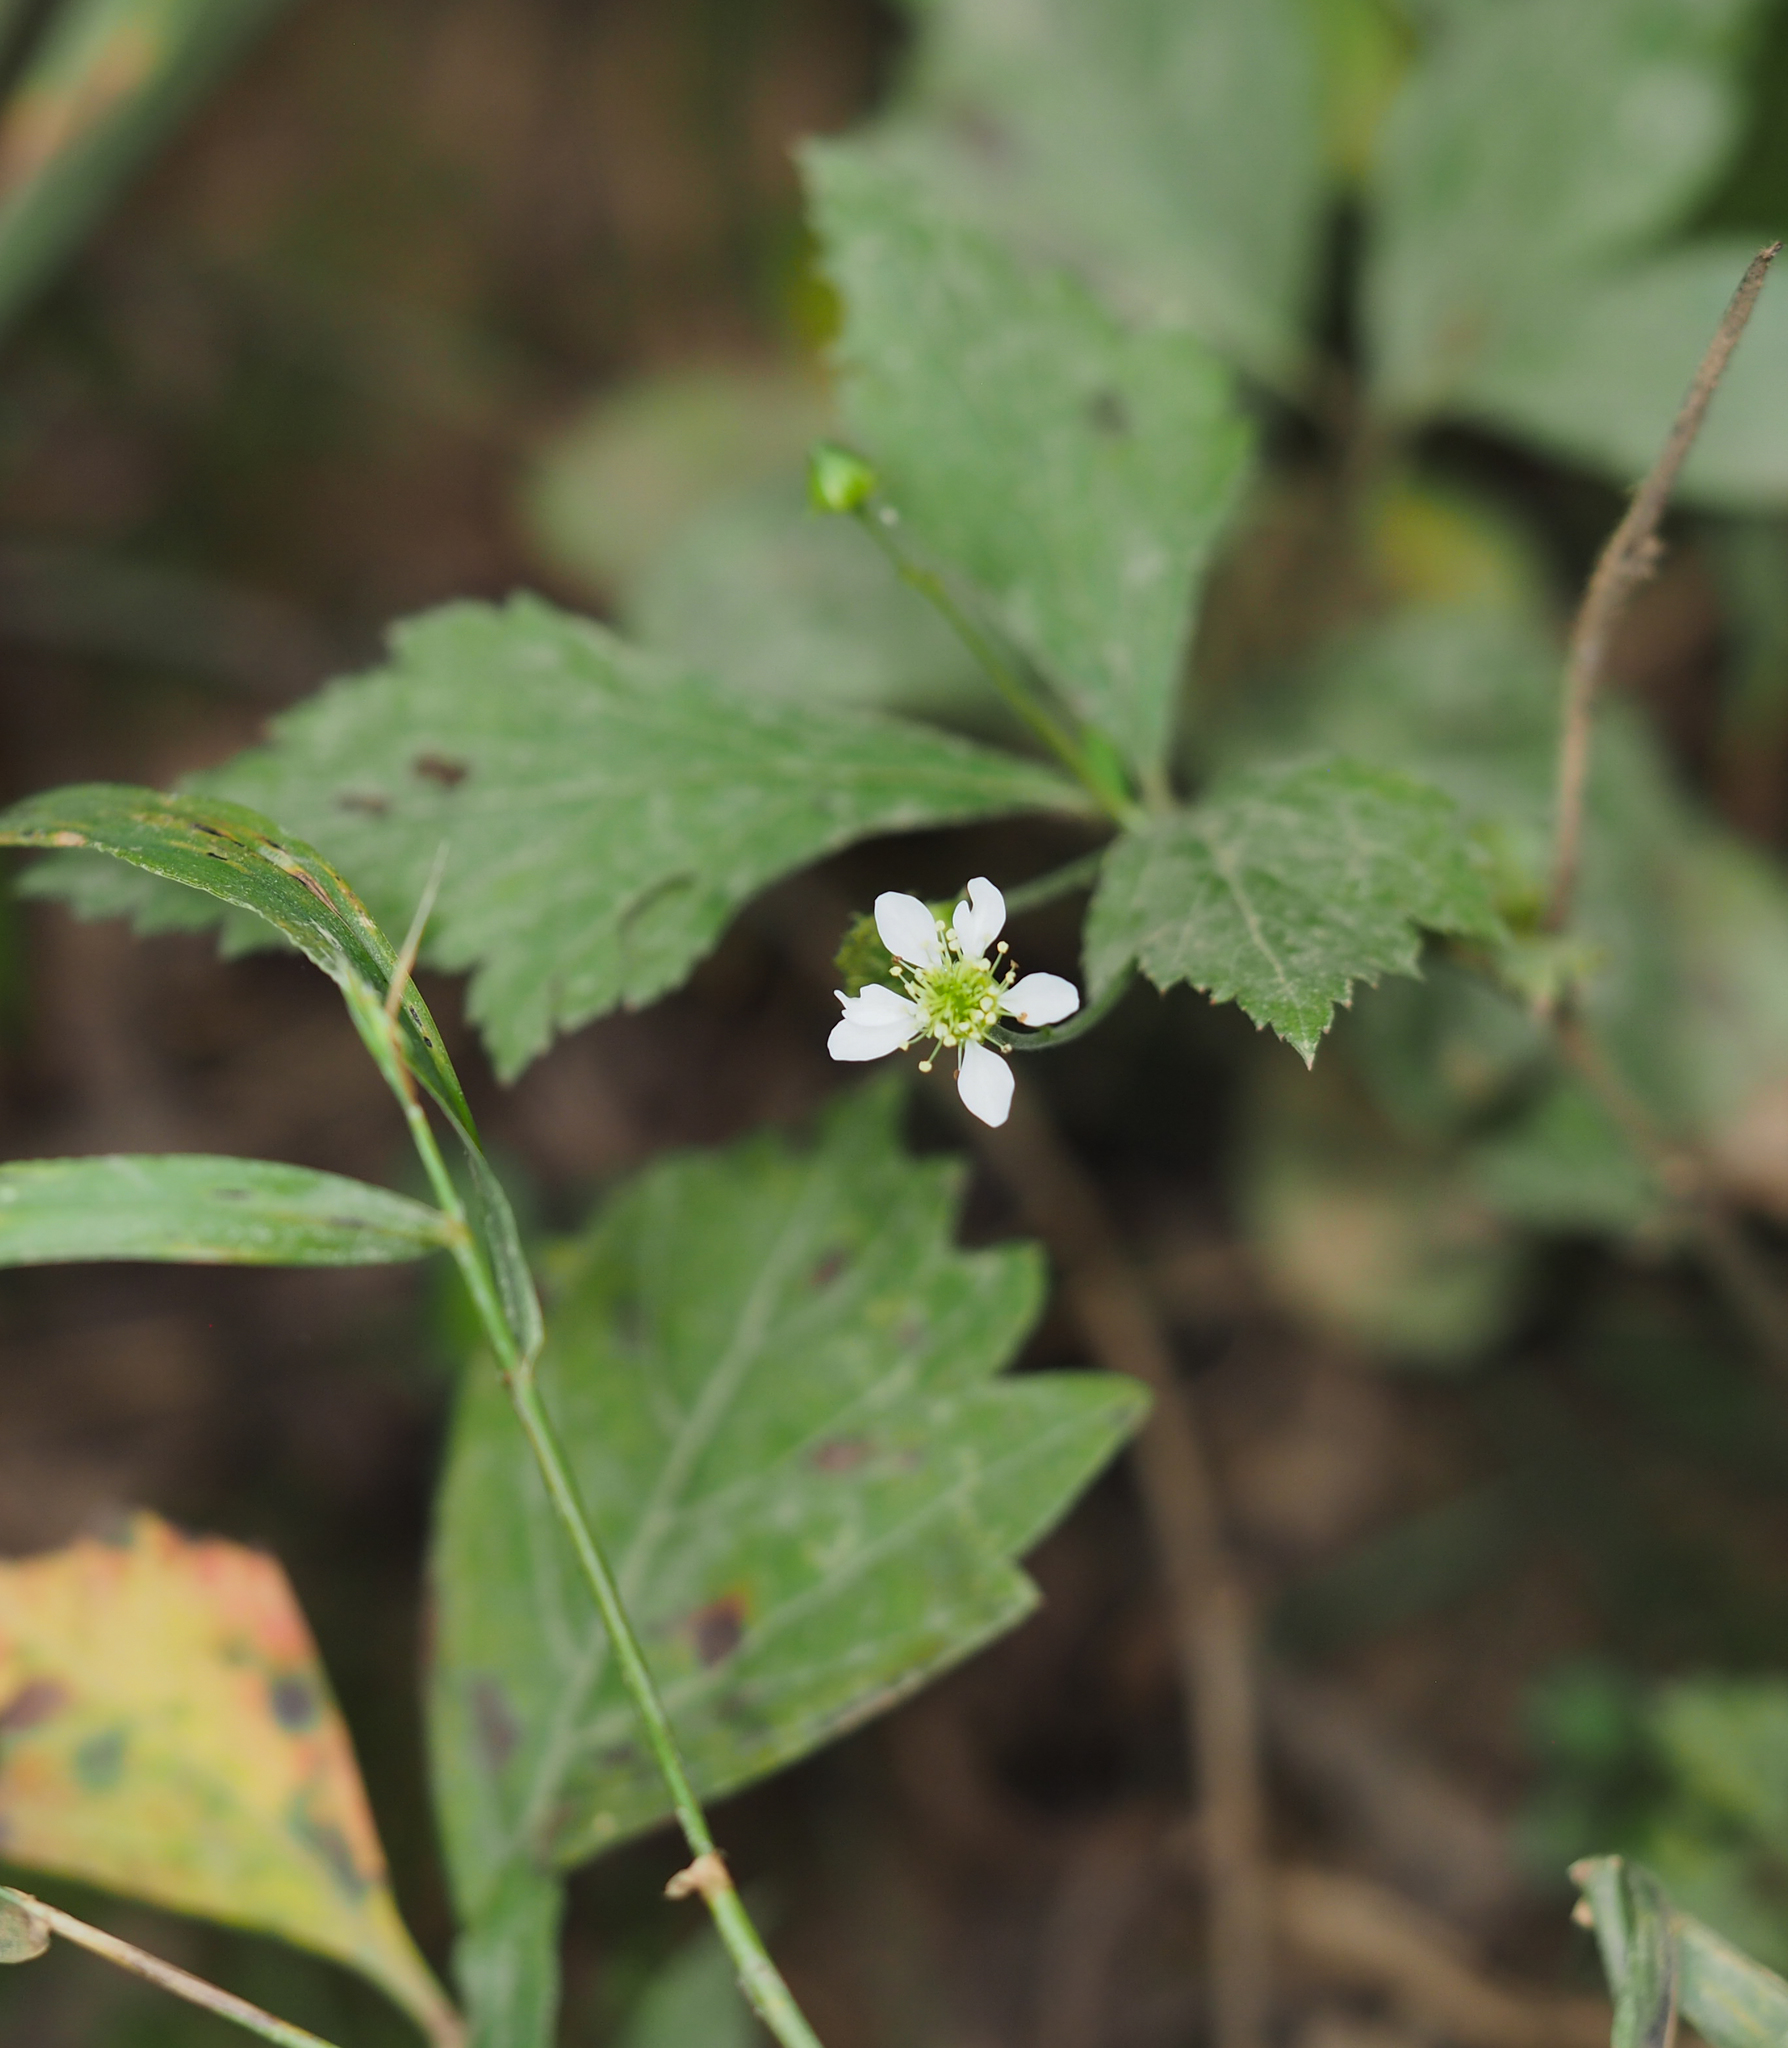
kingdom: Plantae
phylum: Tracheophyta
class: Magnoliopsida
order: Rosales
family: Rosaceae
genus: Geum
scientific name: Geum canadense
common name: White avens
